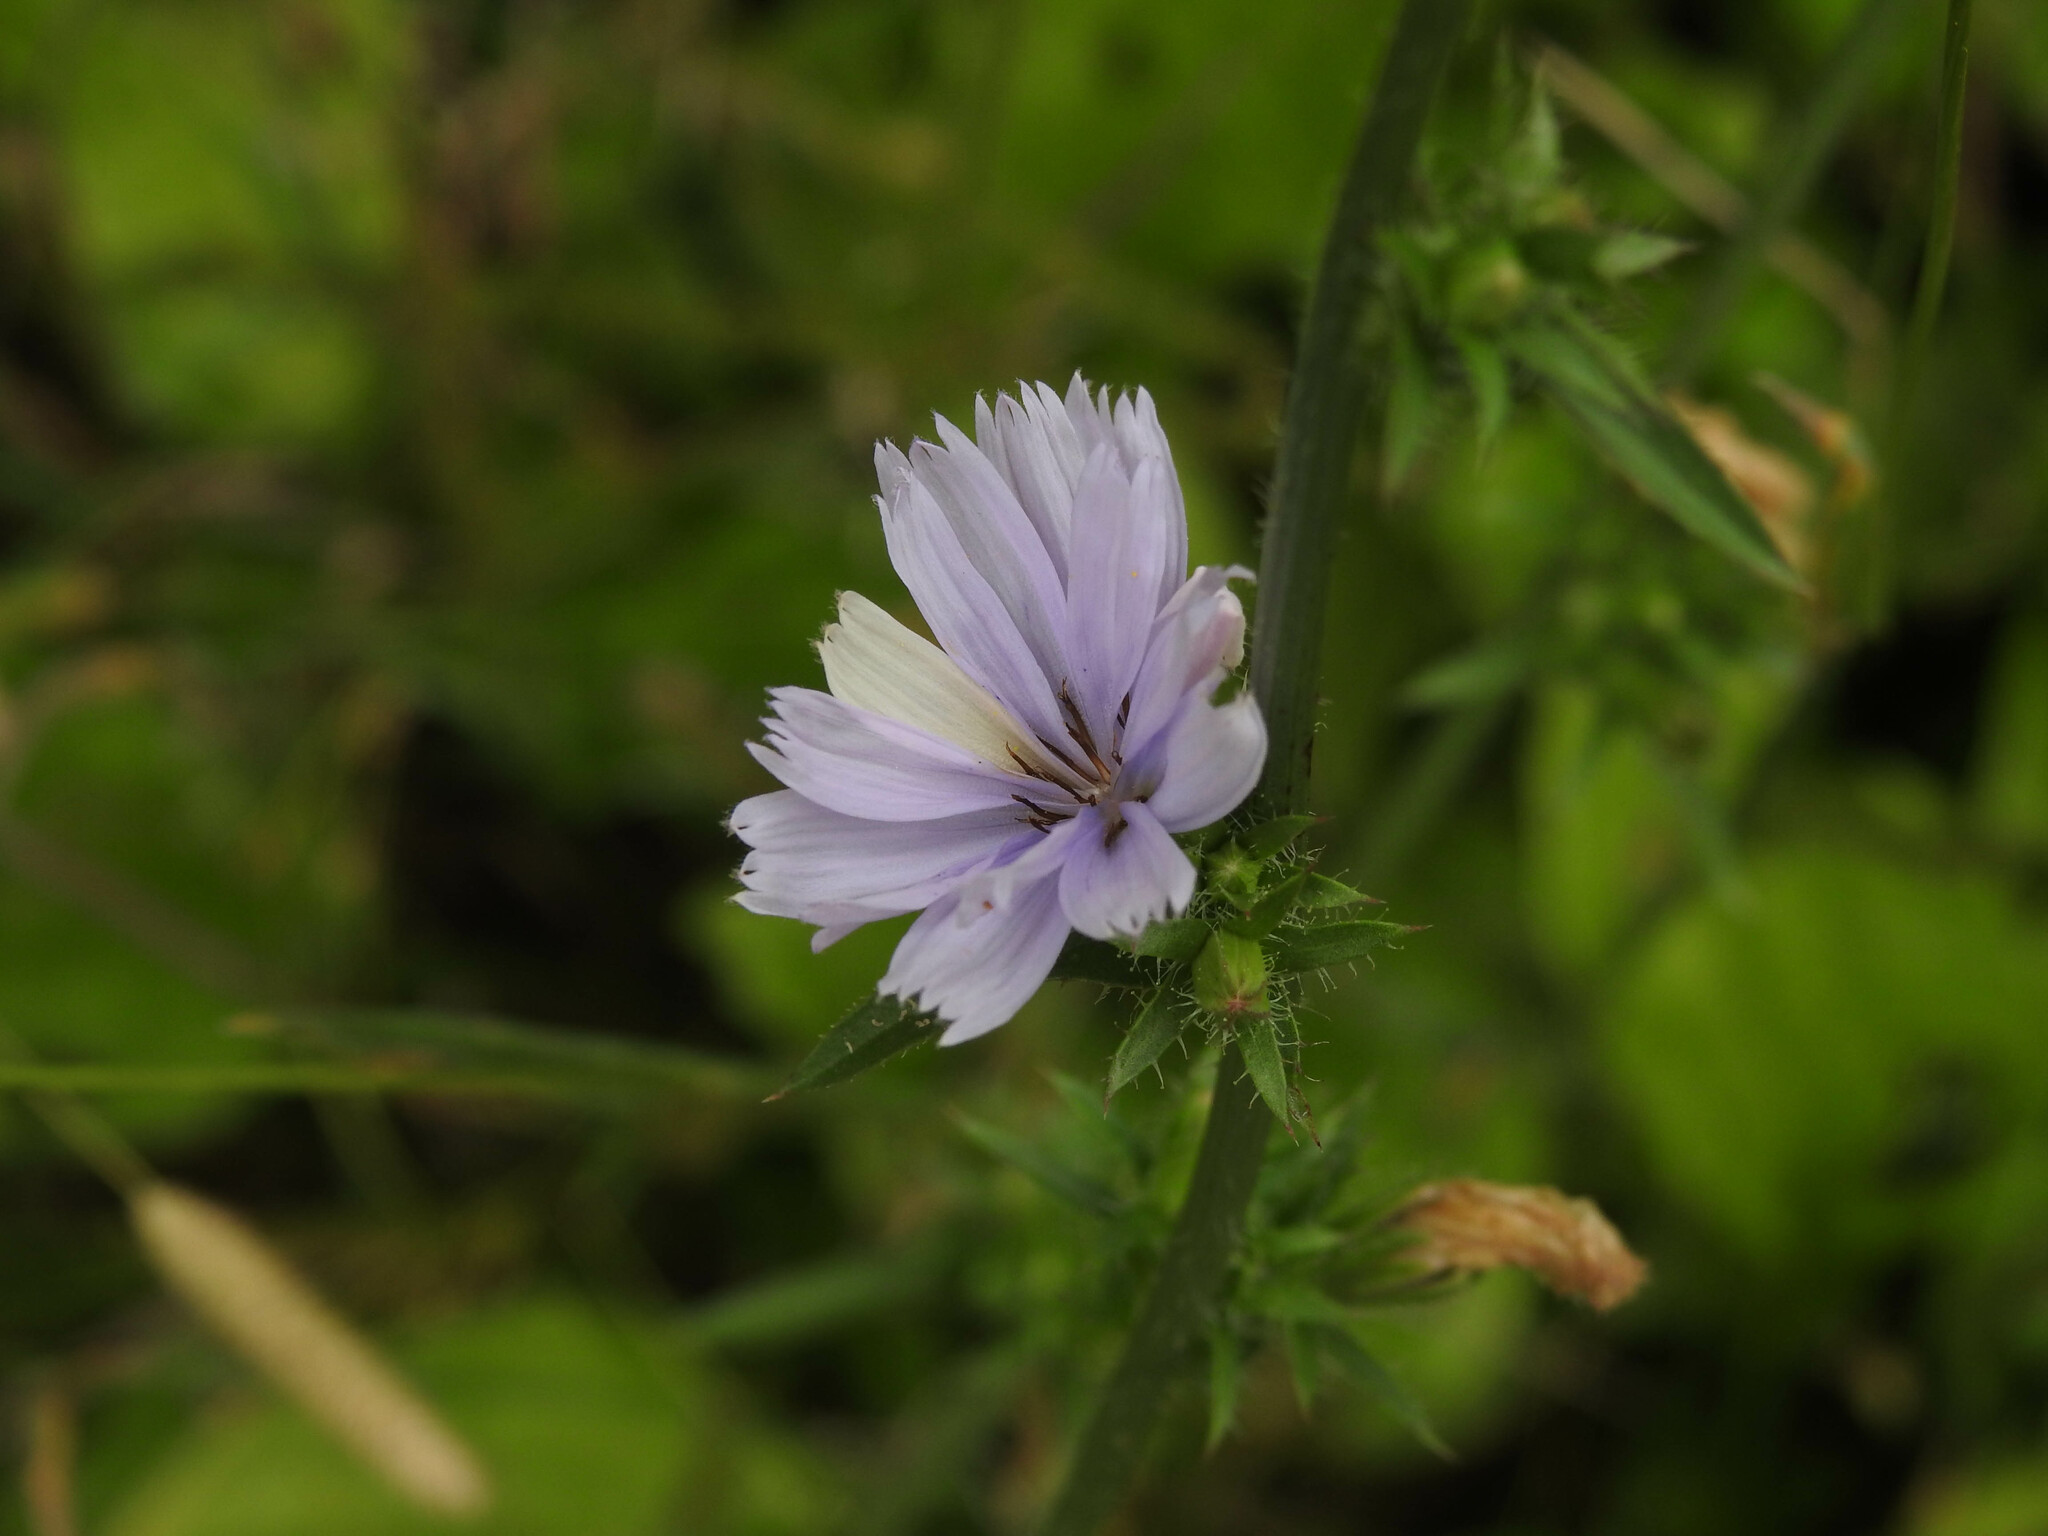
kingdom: Plantae
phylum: Tracheophyta
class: Magnoliopsida
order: Asterales
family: Asteraceae
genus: Cichorium
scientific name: Cichorium intybus
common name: Chicory
